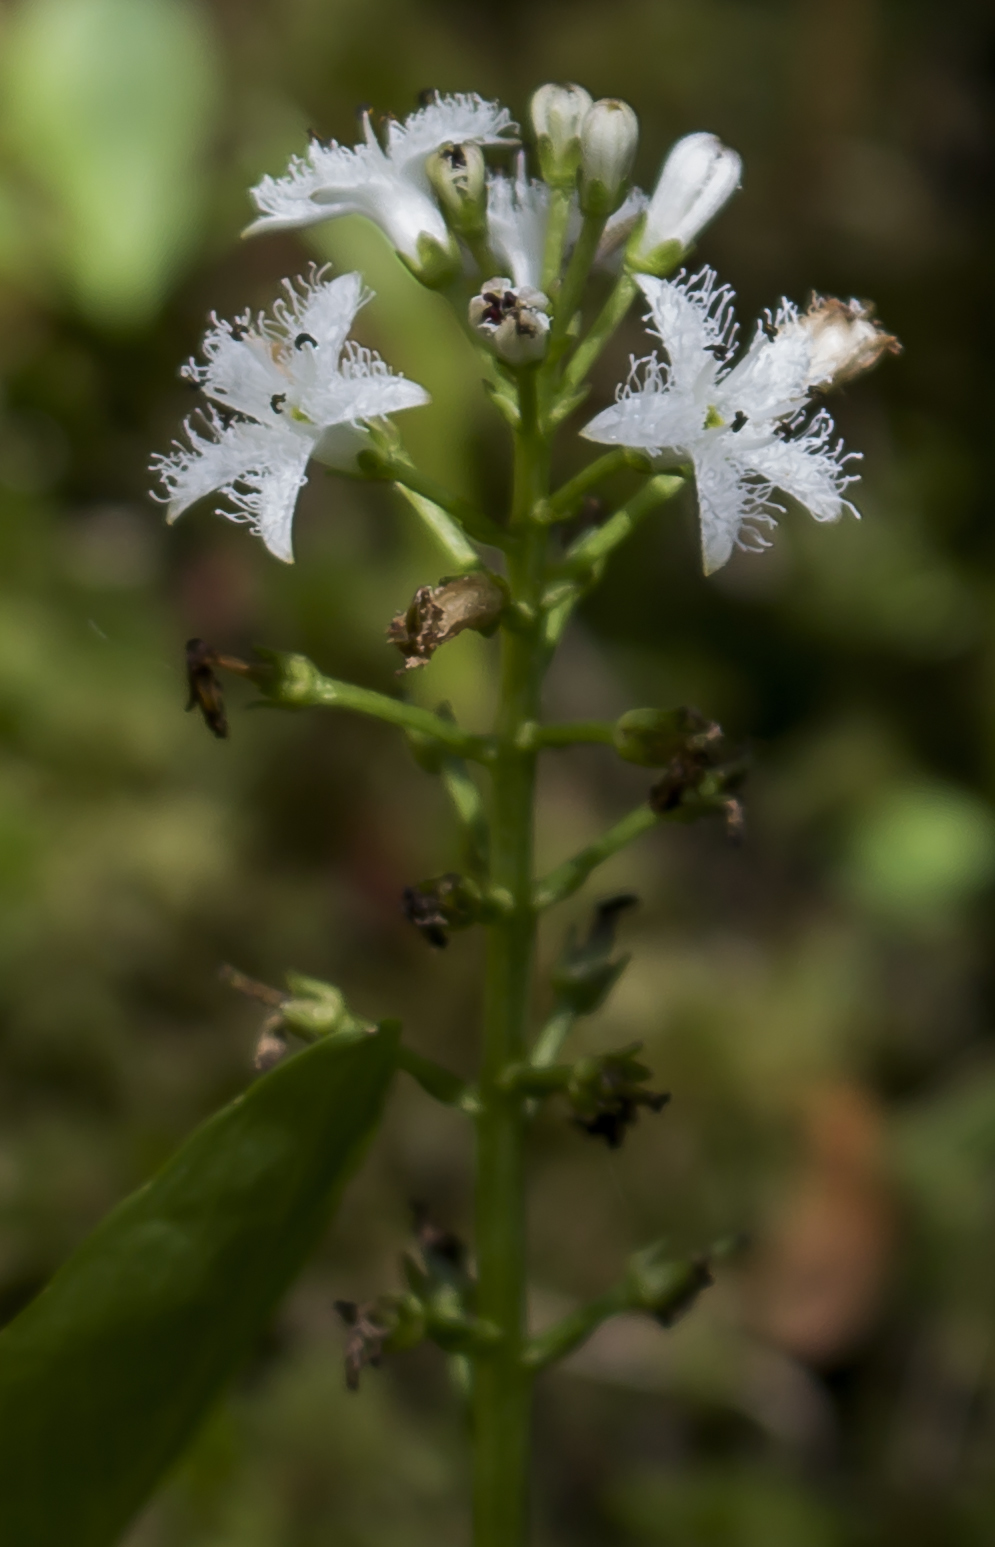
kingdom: Plantae
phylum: Tracheophyta
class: Magnoliopsida
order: Asterales
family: Menyanthaceae
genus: Menyanthes
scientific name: Menyanthes trifoliata
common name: Bogbean
